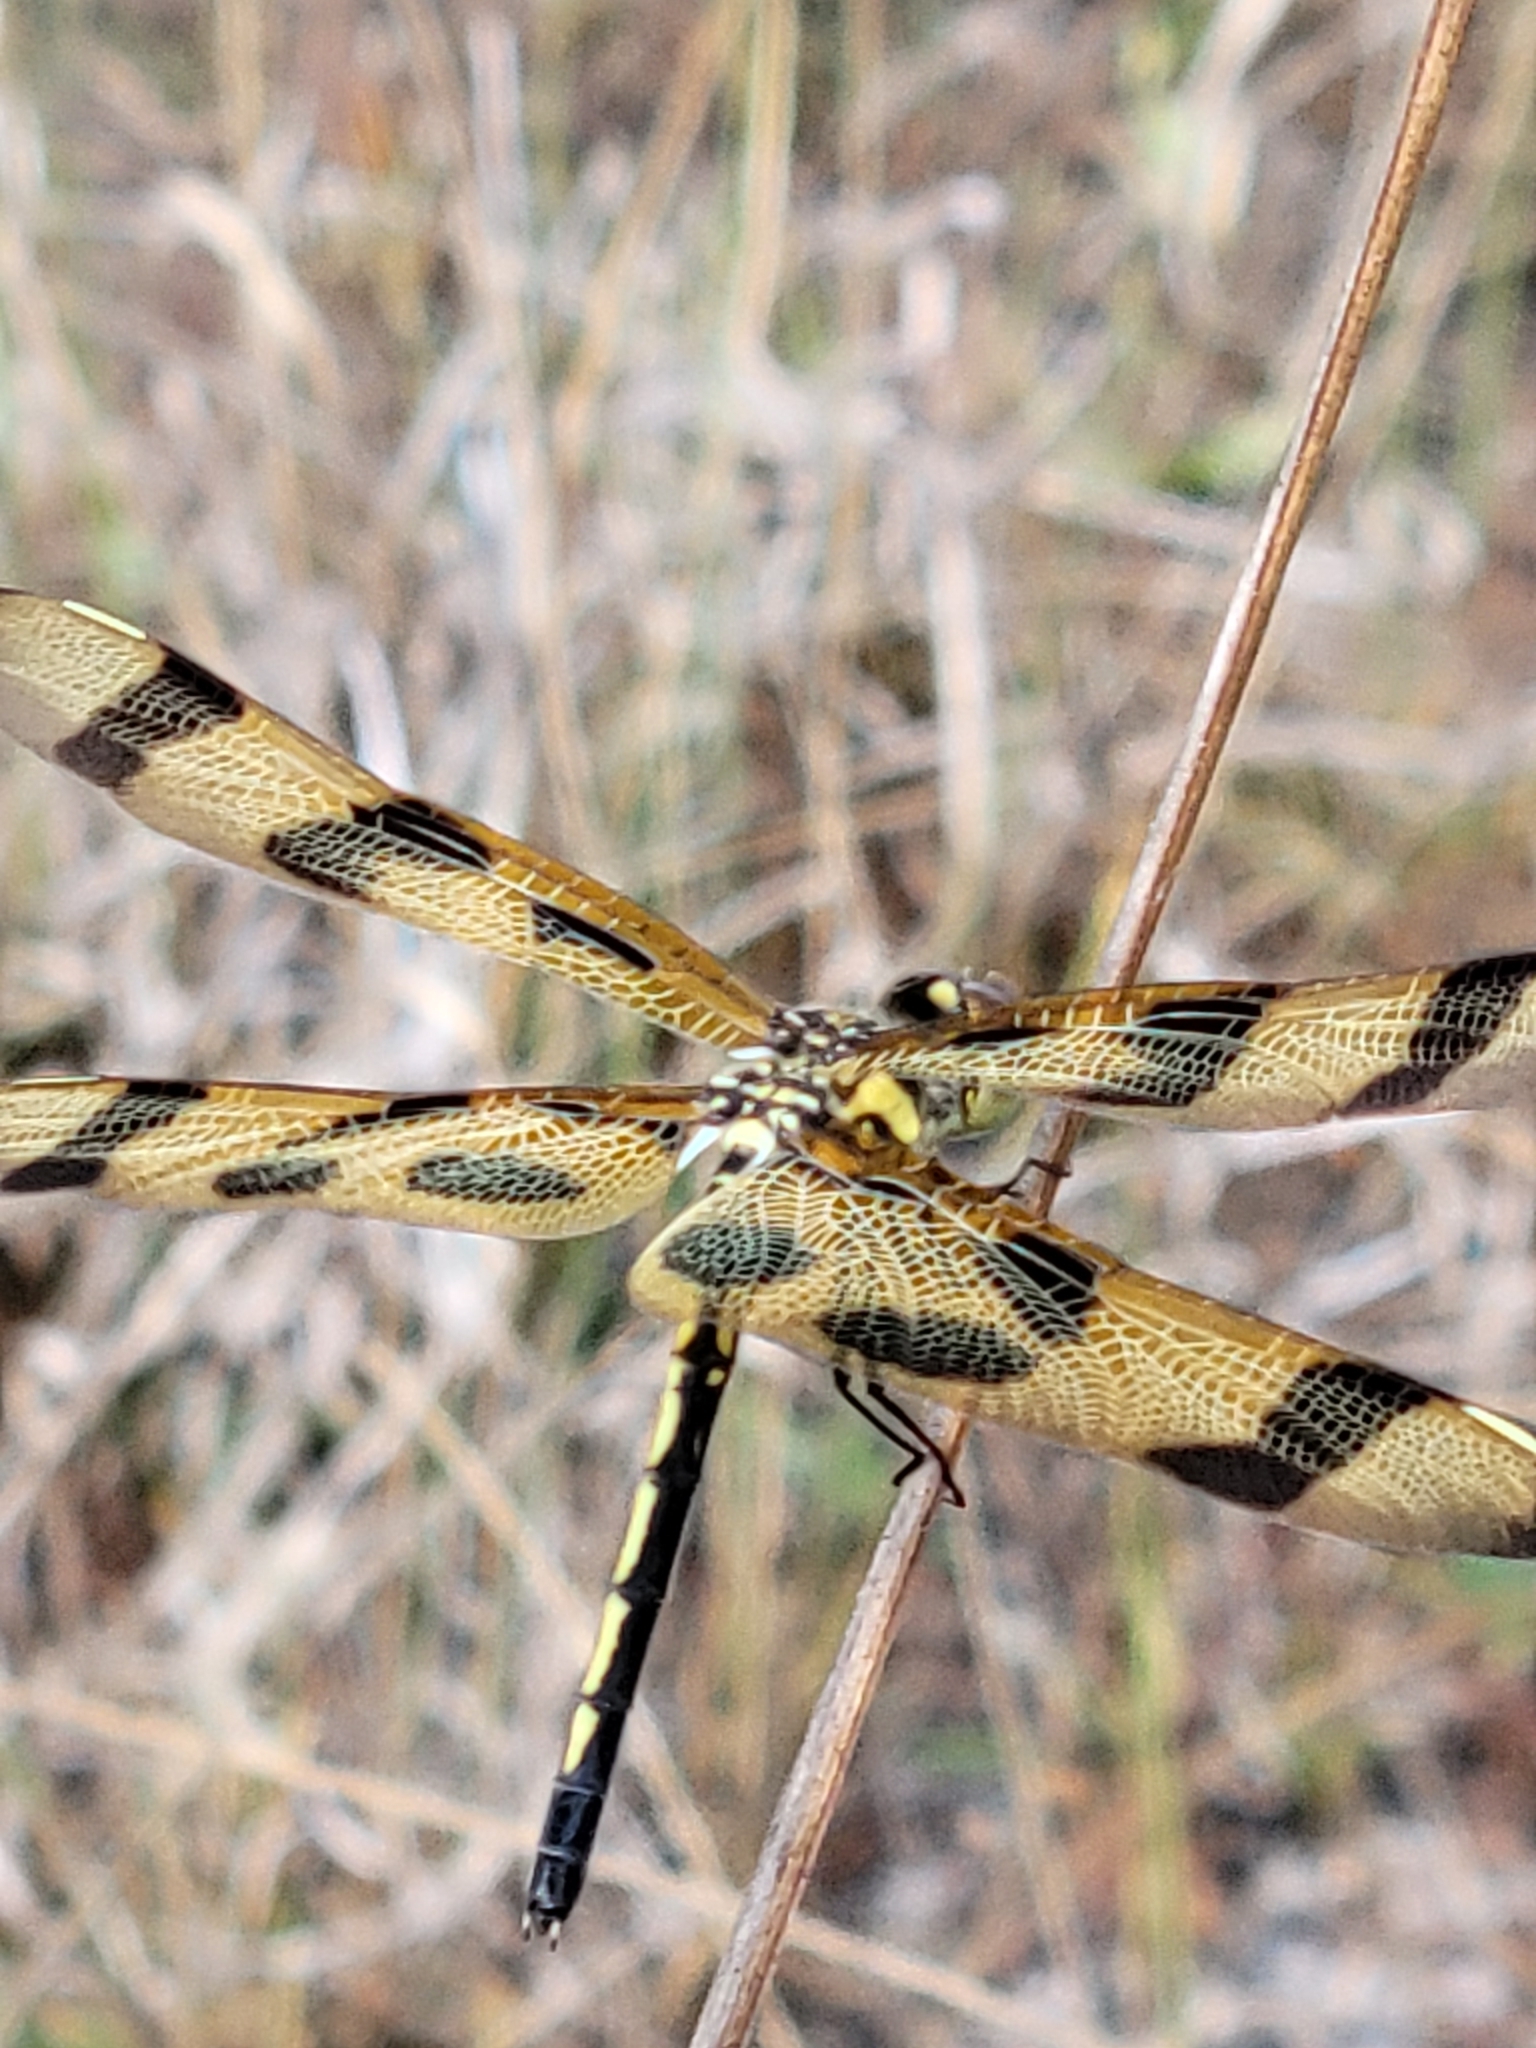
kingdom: Animalia
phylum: Arthropoda
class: Insecta
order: Odonata
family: Libellulidae
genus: Celithemis
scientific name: Celithemis eponina
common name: Halloween pennant
